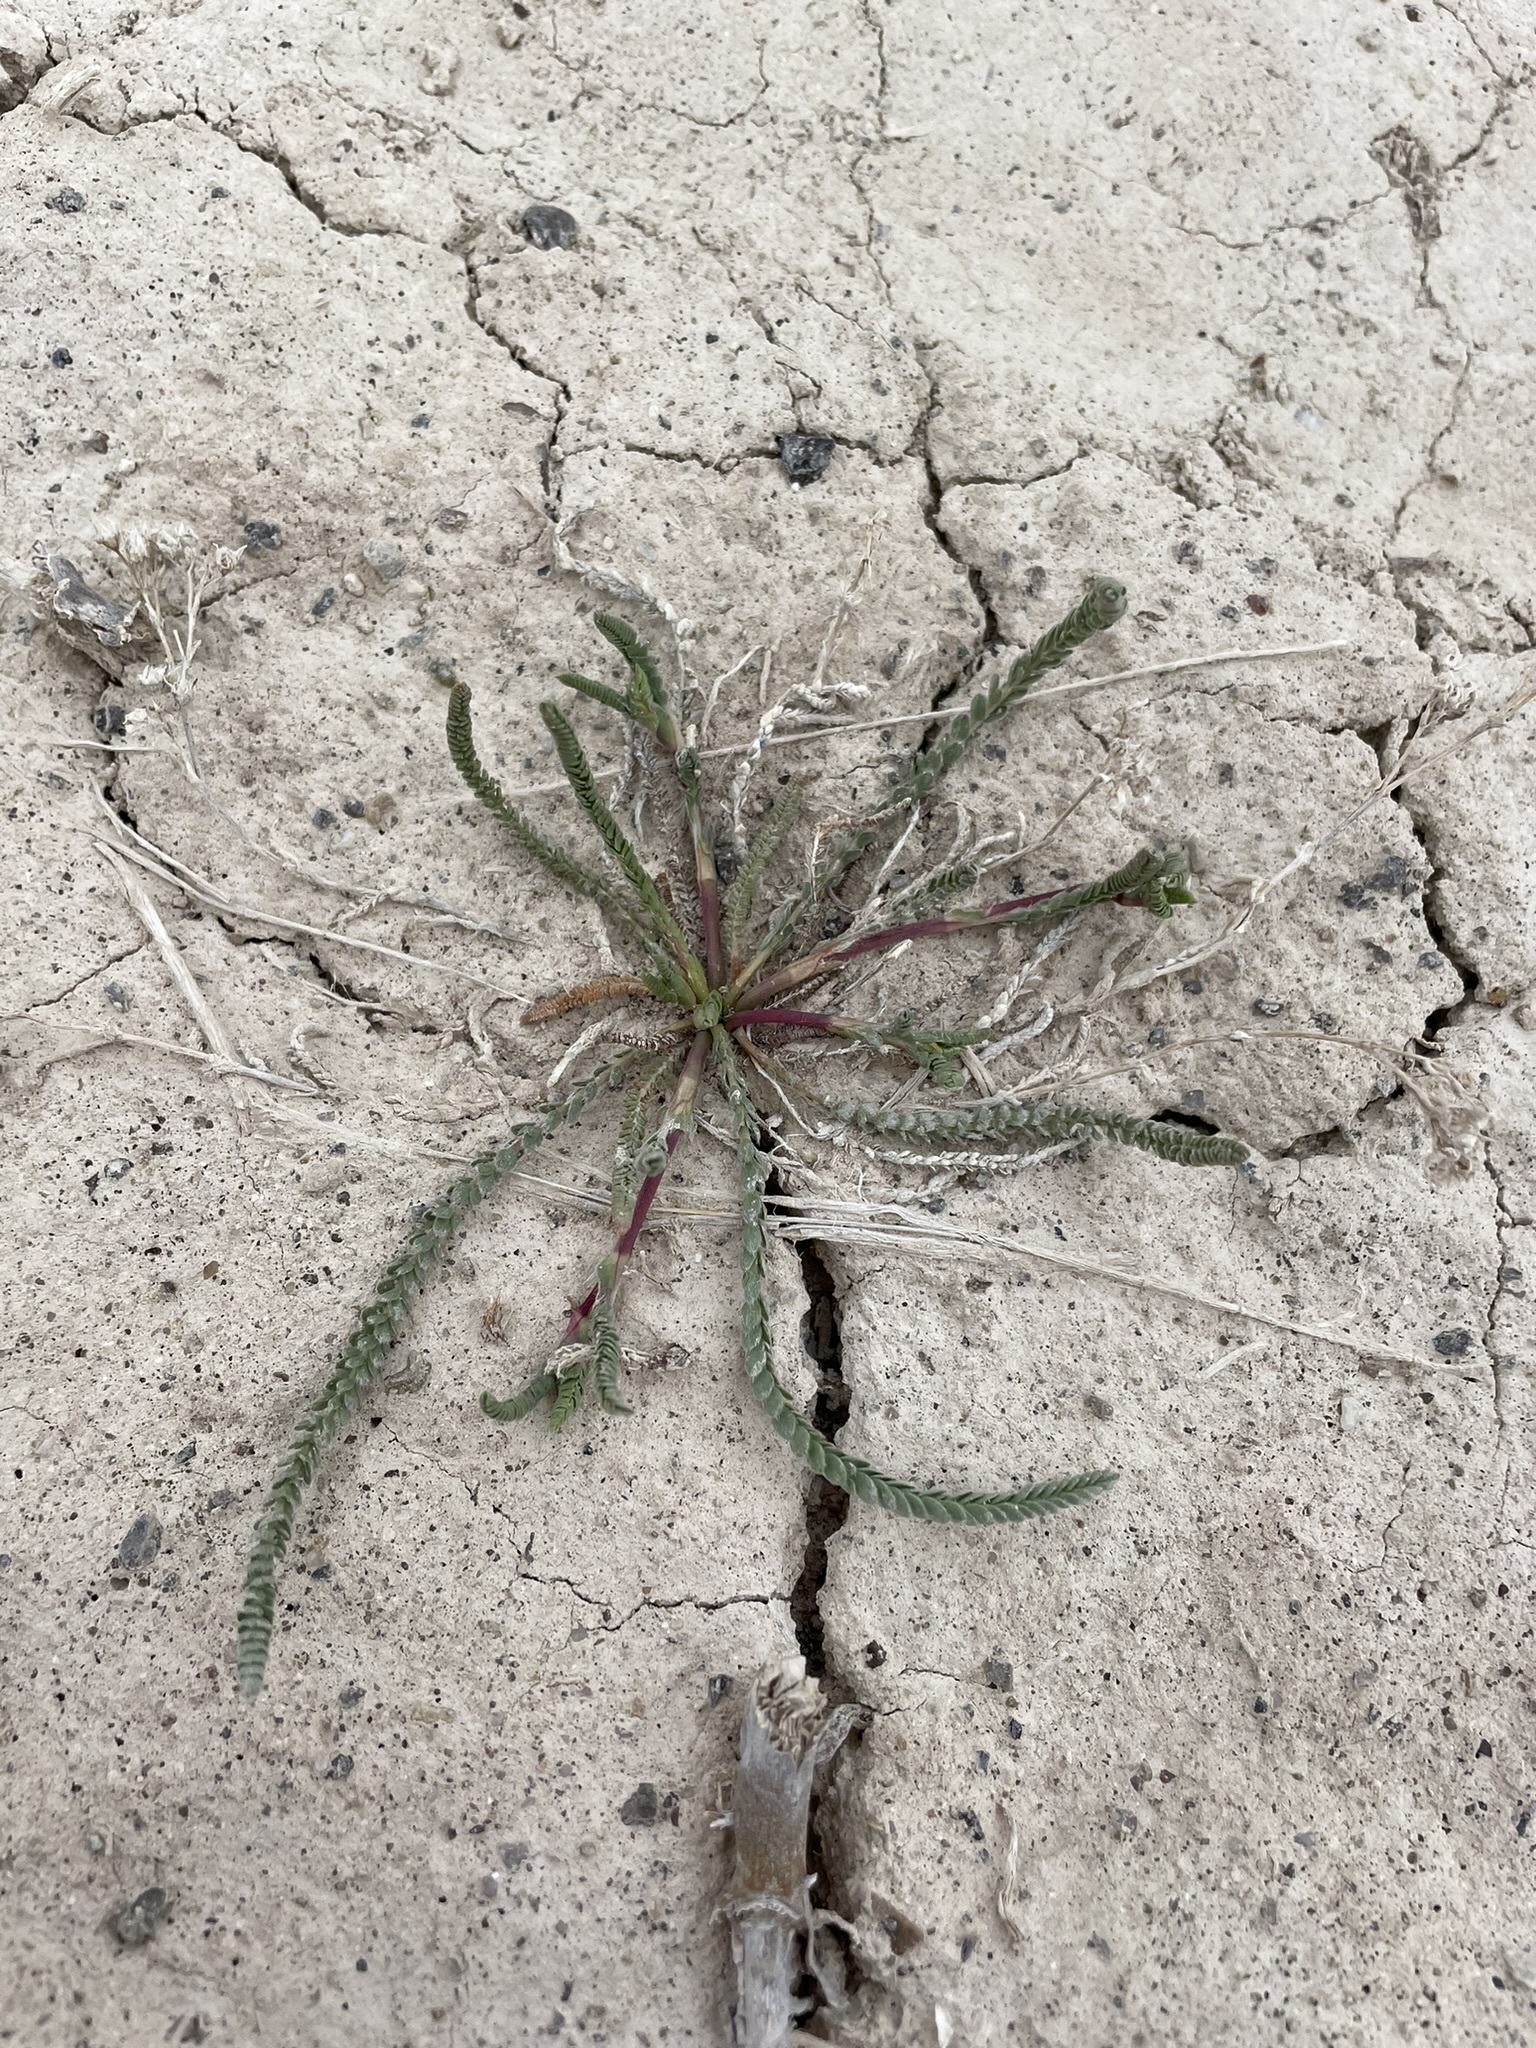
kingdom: Plantae
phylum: Tracheophyta
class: Magnoliopsida
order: Rosales
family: Rosaceae
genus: Potentilla
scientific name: Potentilla kingii
